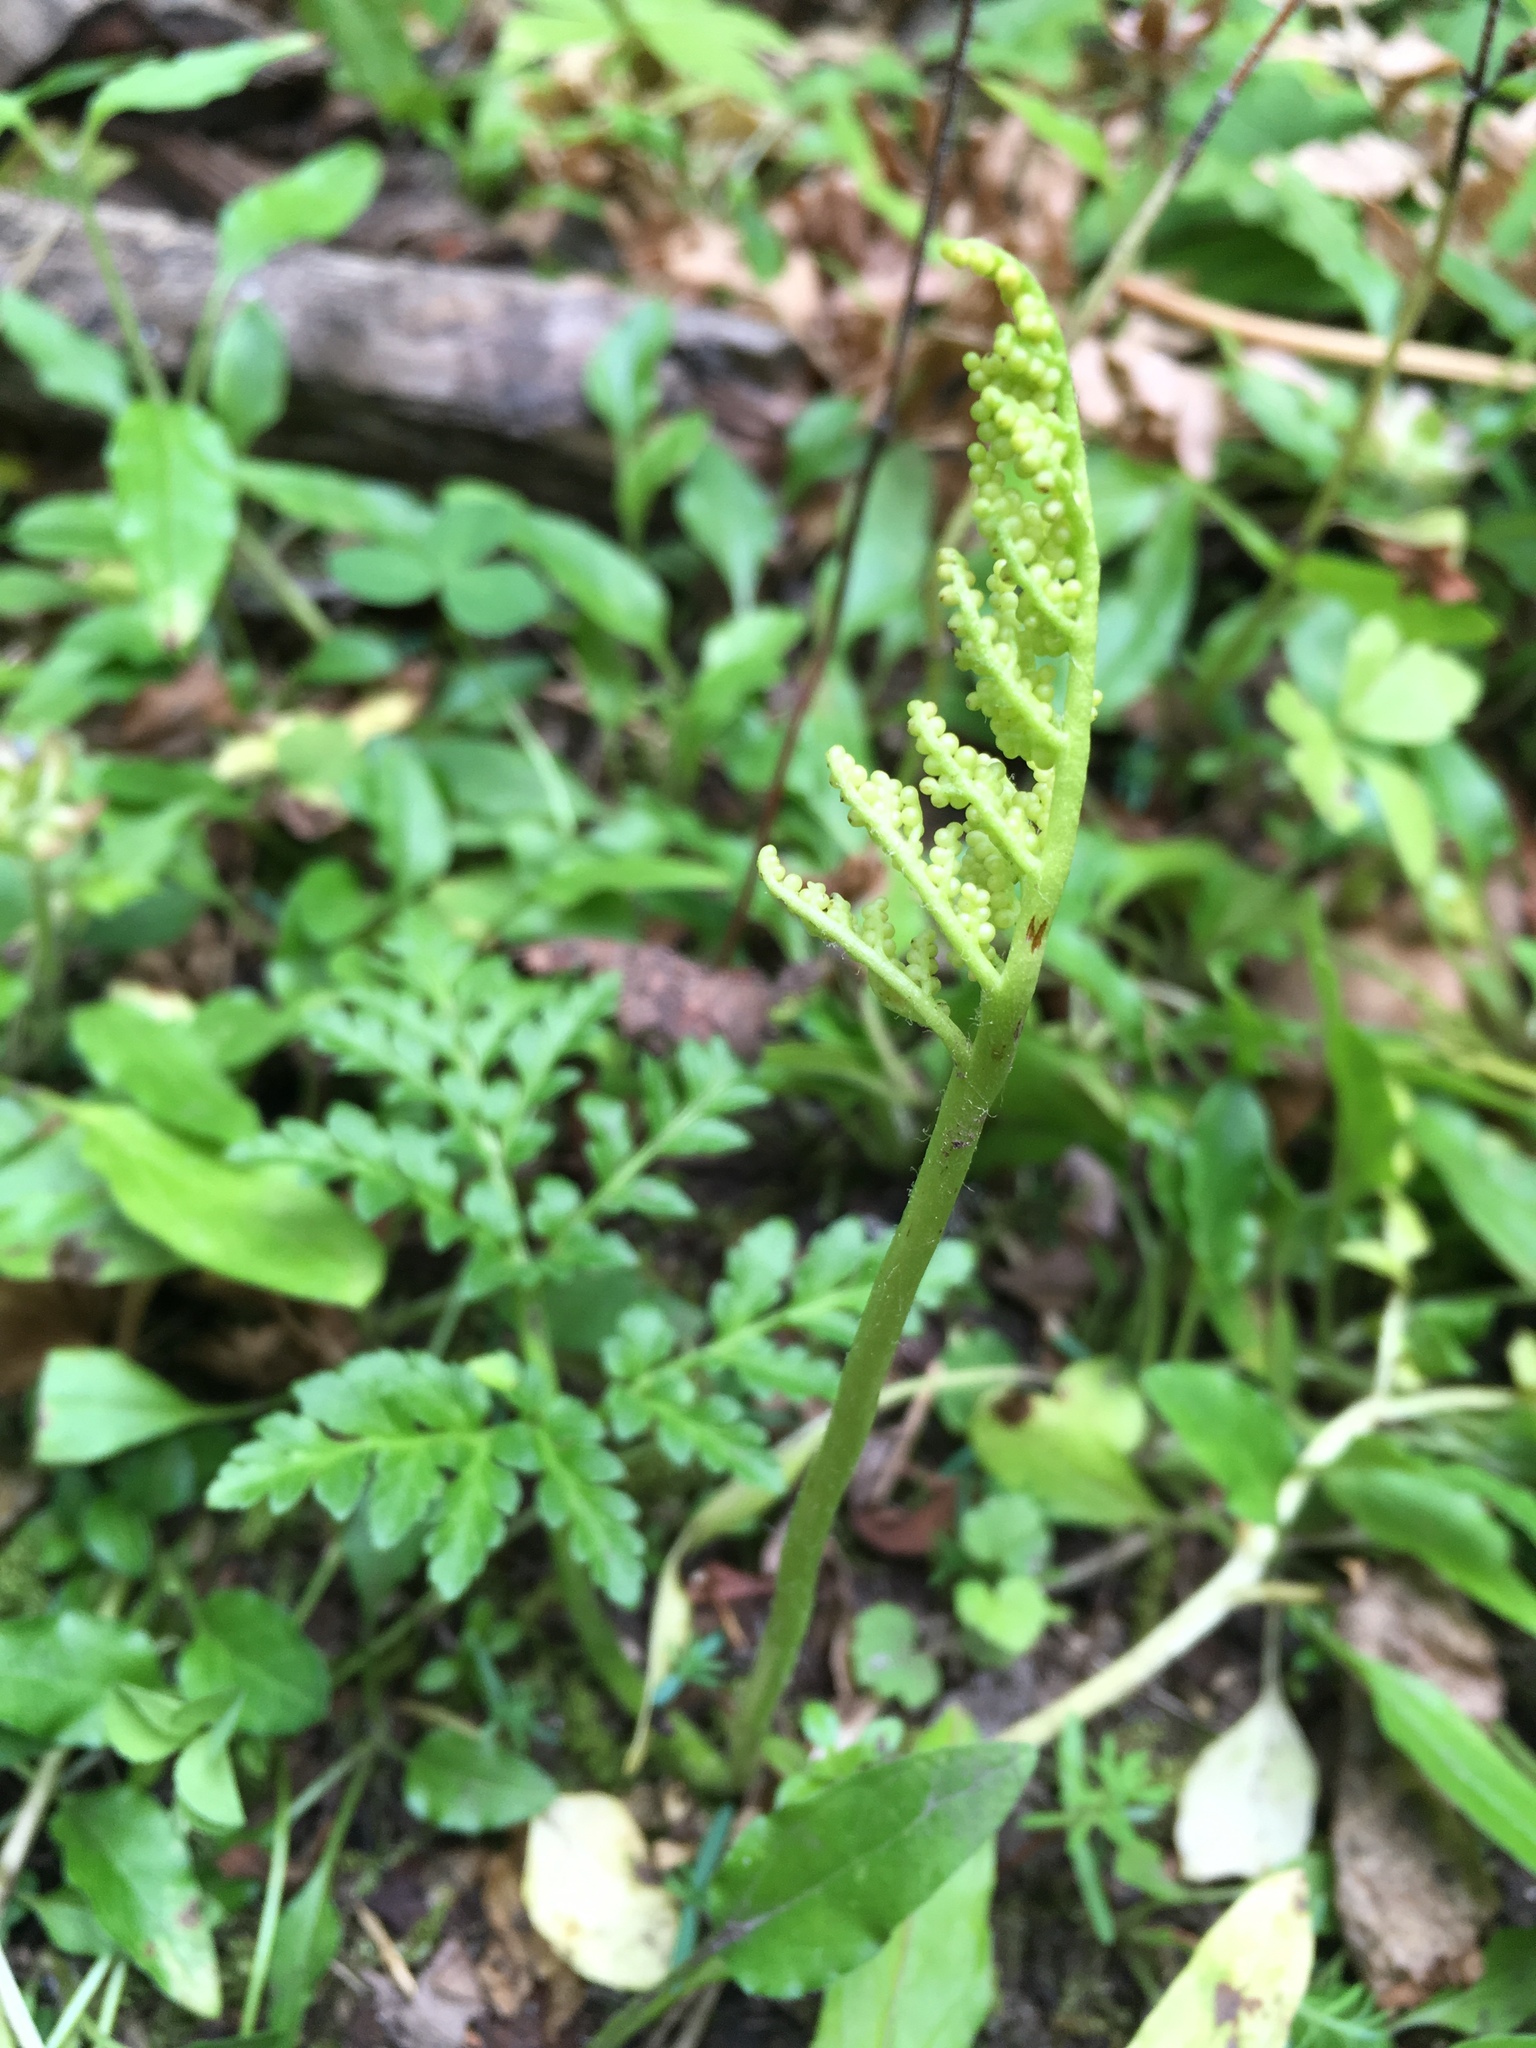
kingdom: Plantae
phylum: Tracheophyta
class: Polypodiopsida
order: Ophioglossales
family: Ophioglossaceae
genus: Sceptridium
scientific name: Sceptridium multifidum
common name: Leathery grape fern
